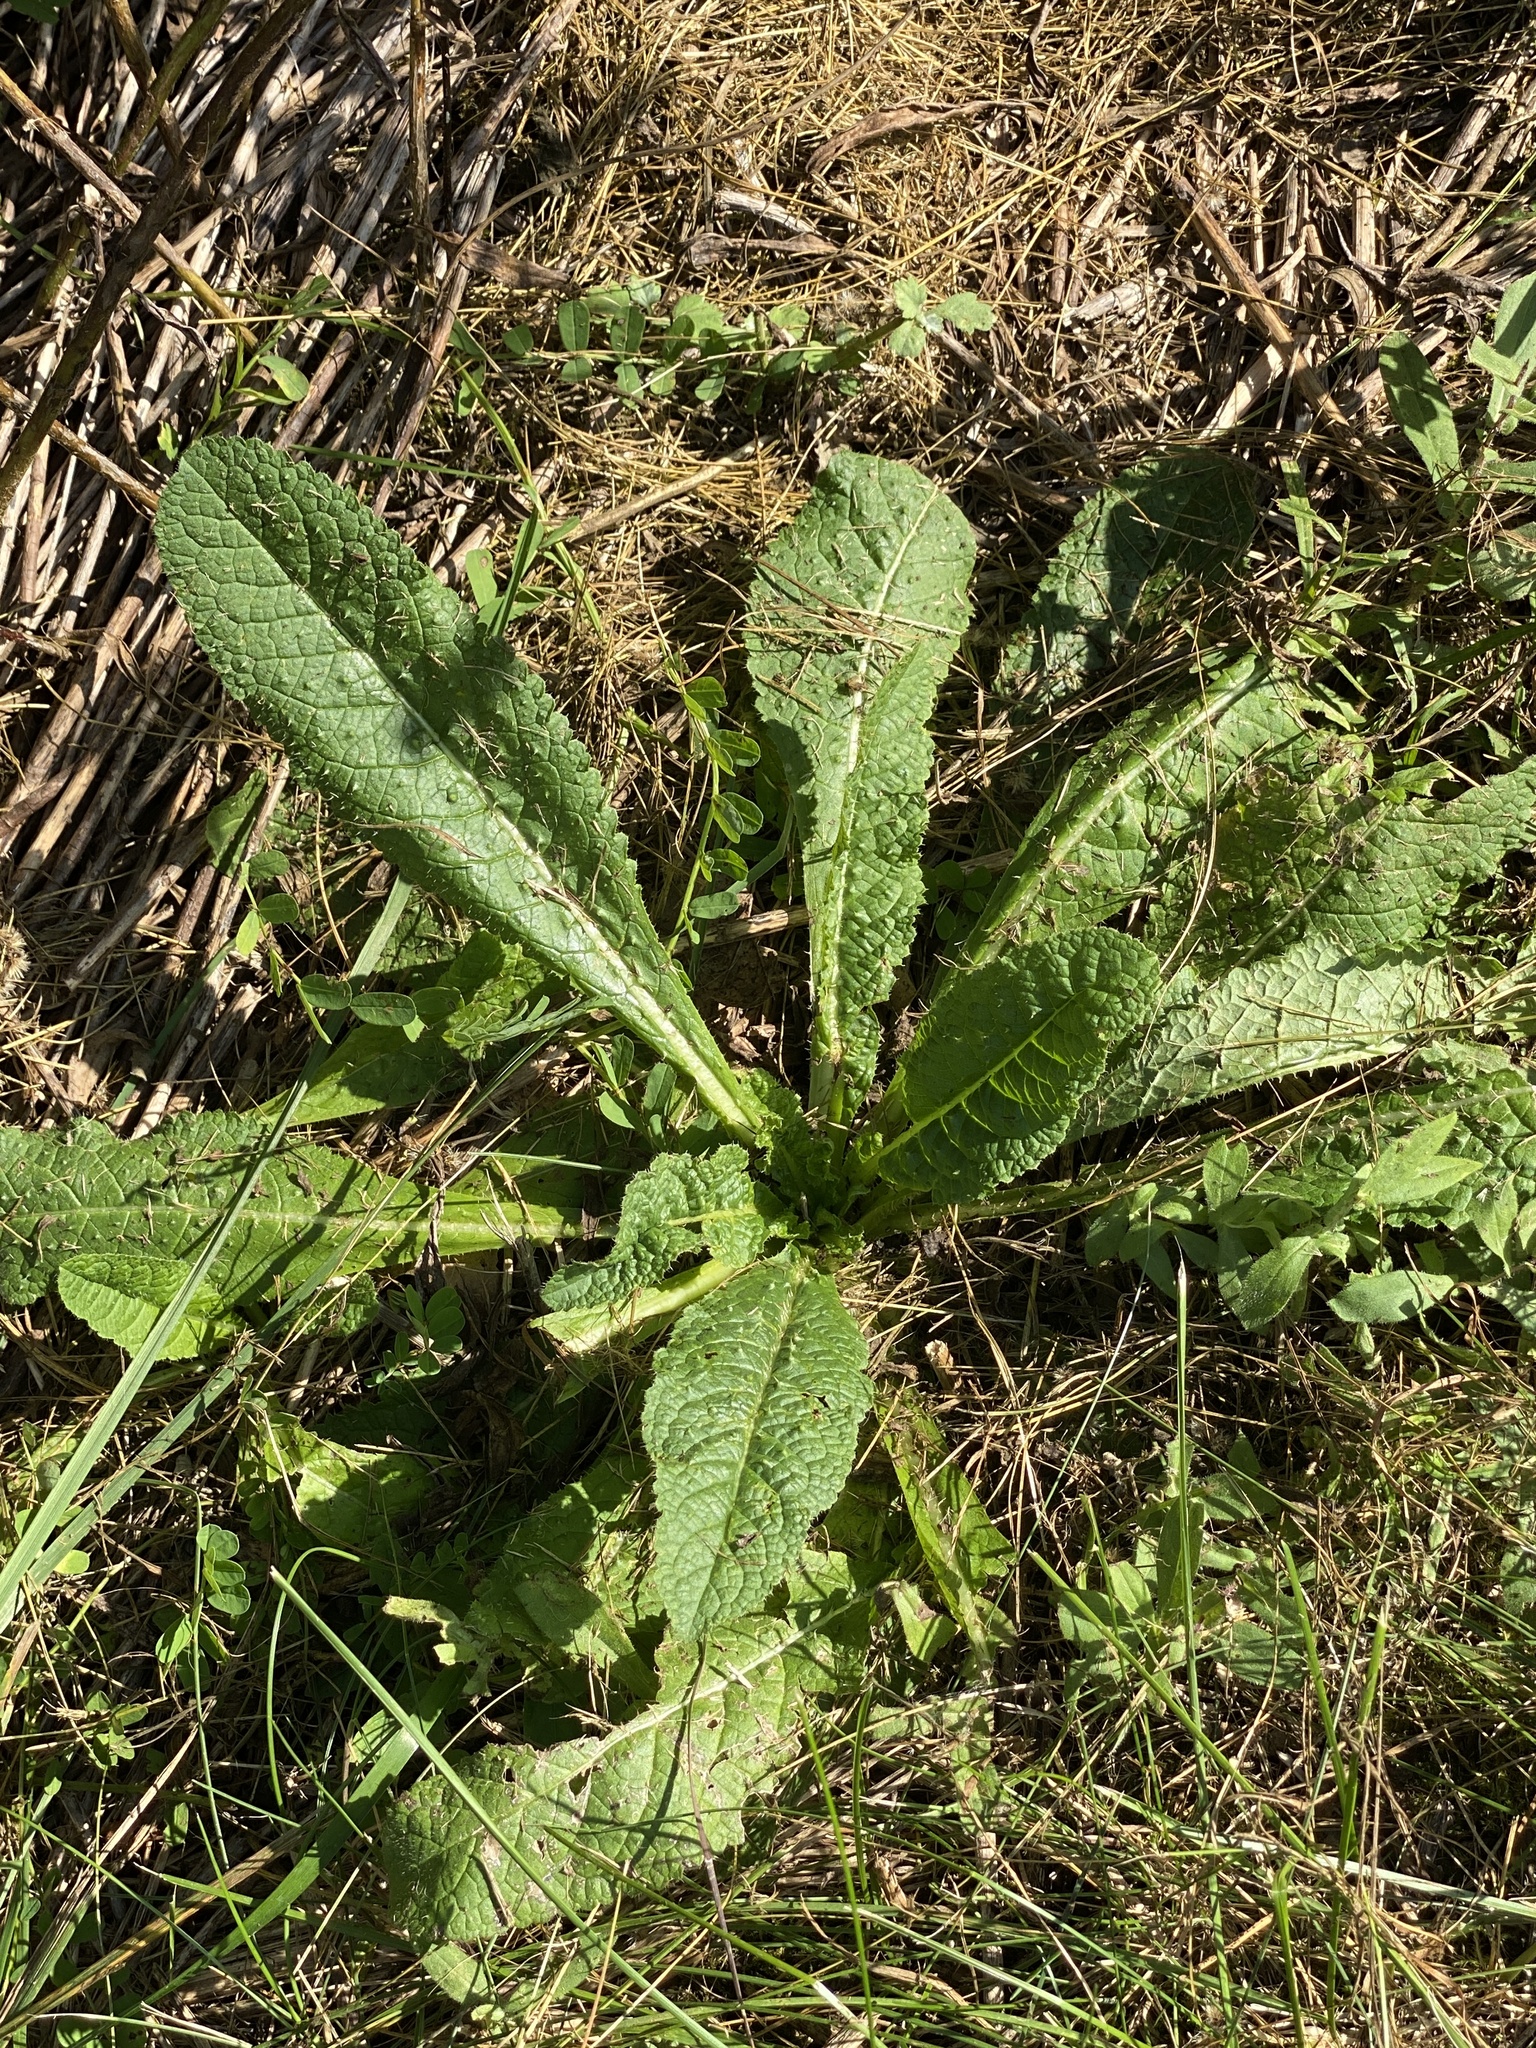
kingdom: Plantae
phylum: Tracheophyta
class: Magnoliopsida
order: Dipsacales
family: Caprifoliaceae
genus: Dipsacus
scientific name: Dipsacus fullonum
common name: Teasel
